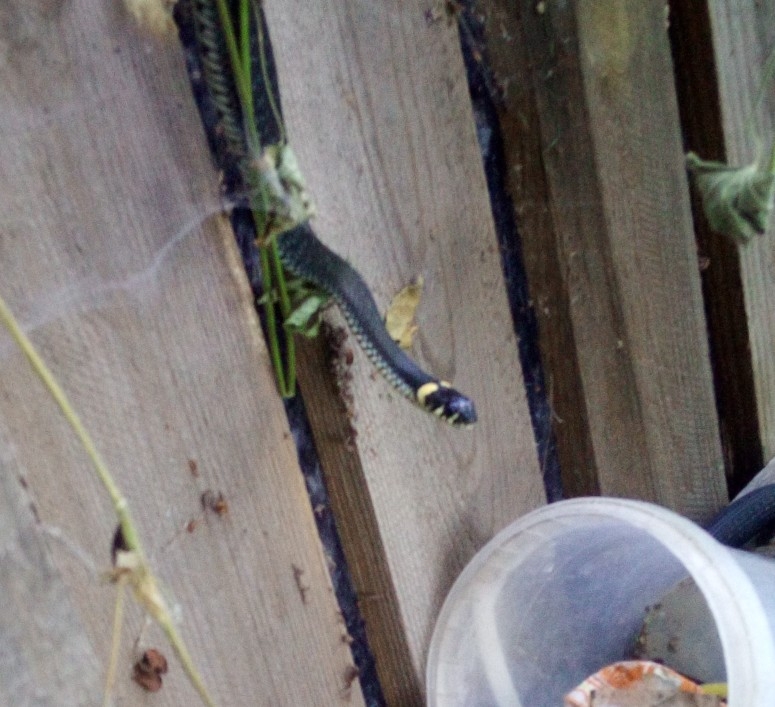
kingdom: Animalia
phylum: Chordata
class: Squamata
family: Colubridae
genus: Natrix
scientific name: Natrix natrix
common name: Grass snake
